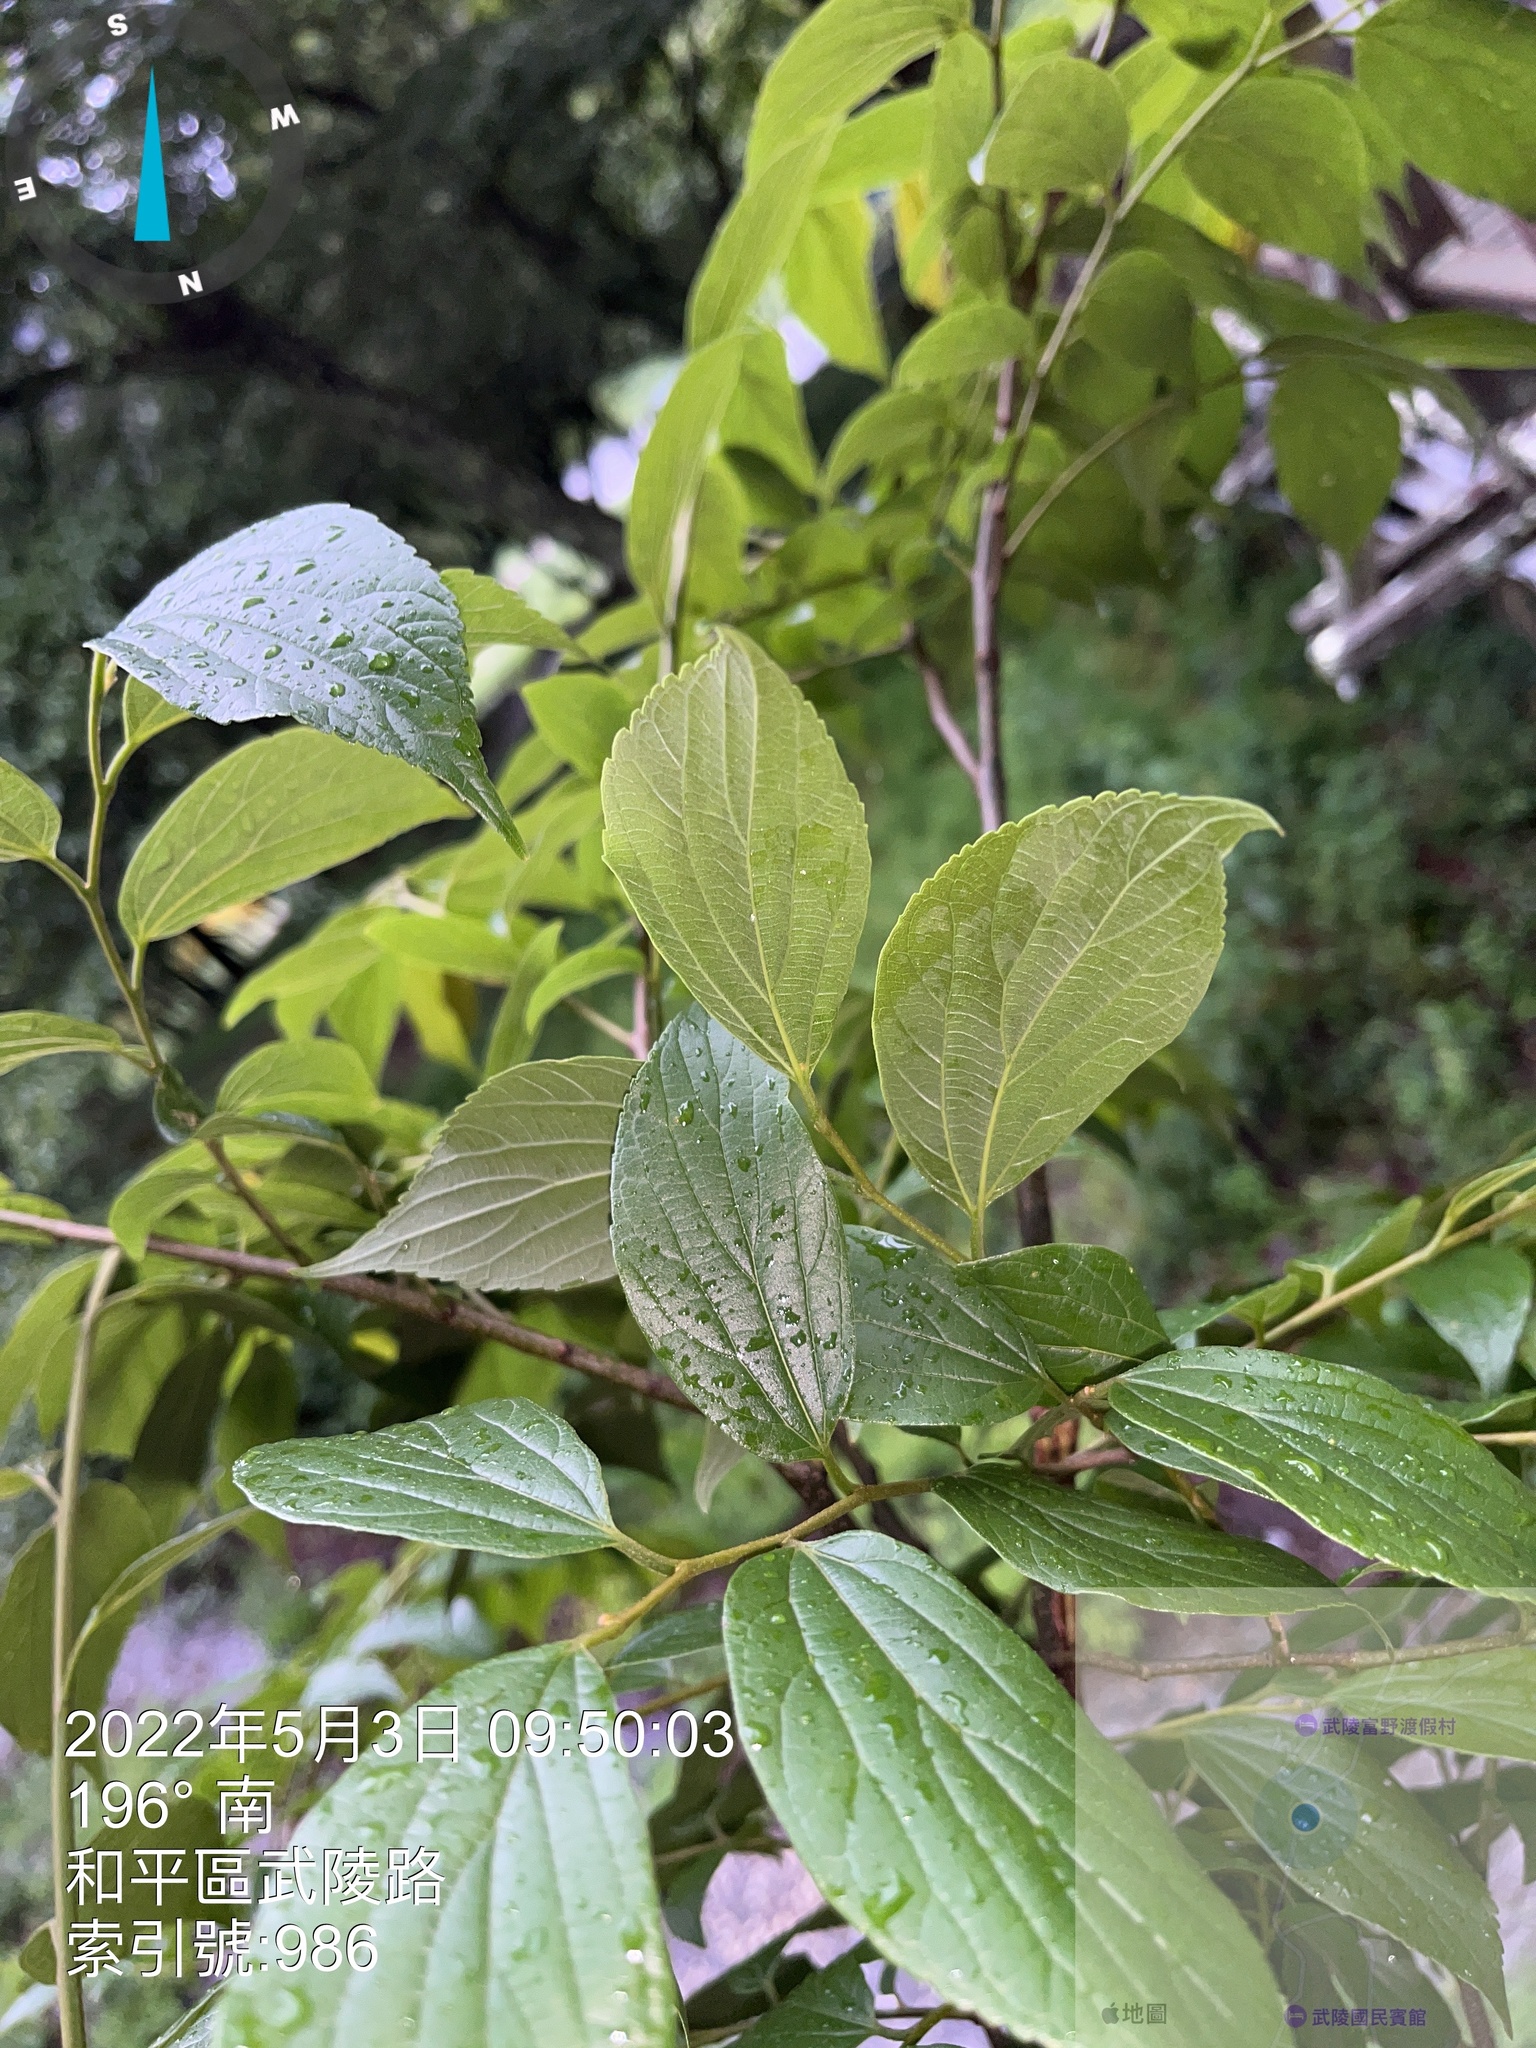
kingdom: Plantae
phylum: Tracheophyta
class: Magnoliopsida
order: Rosales
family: Cannabaceae
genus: Celtis
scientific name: Celtis sinensis
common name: Chinese hackberry
